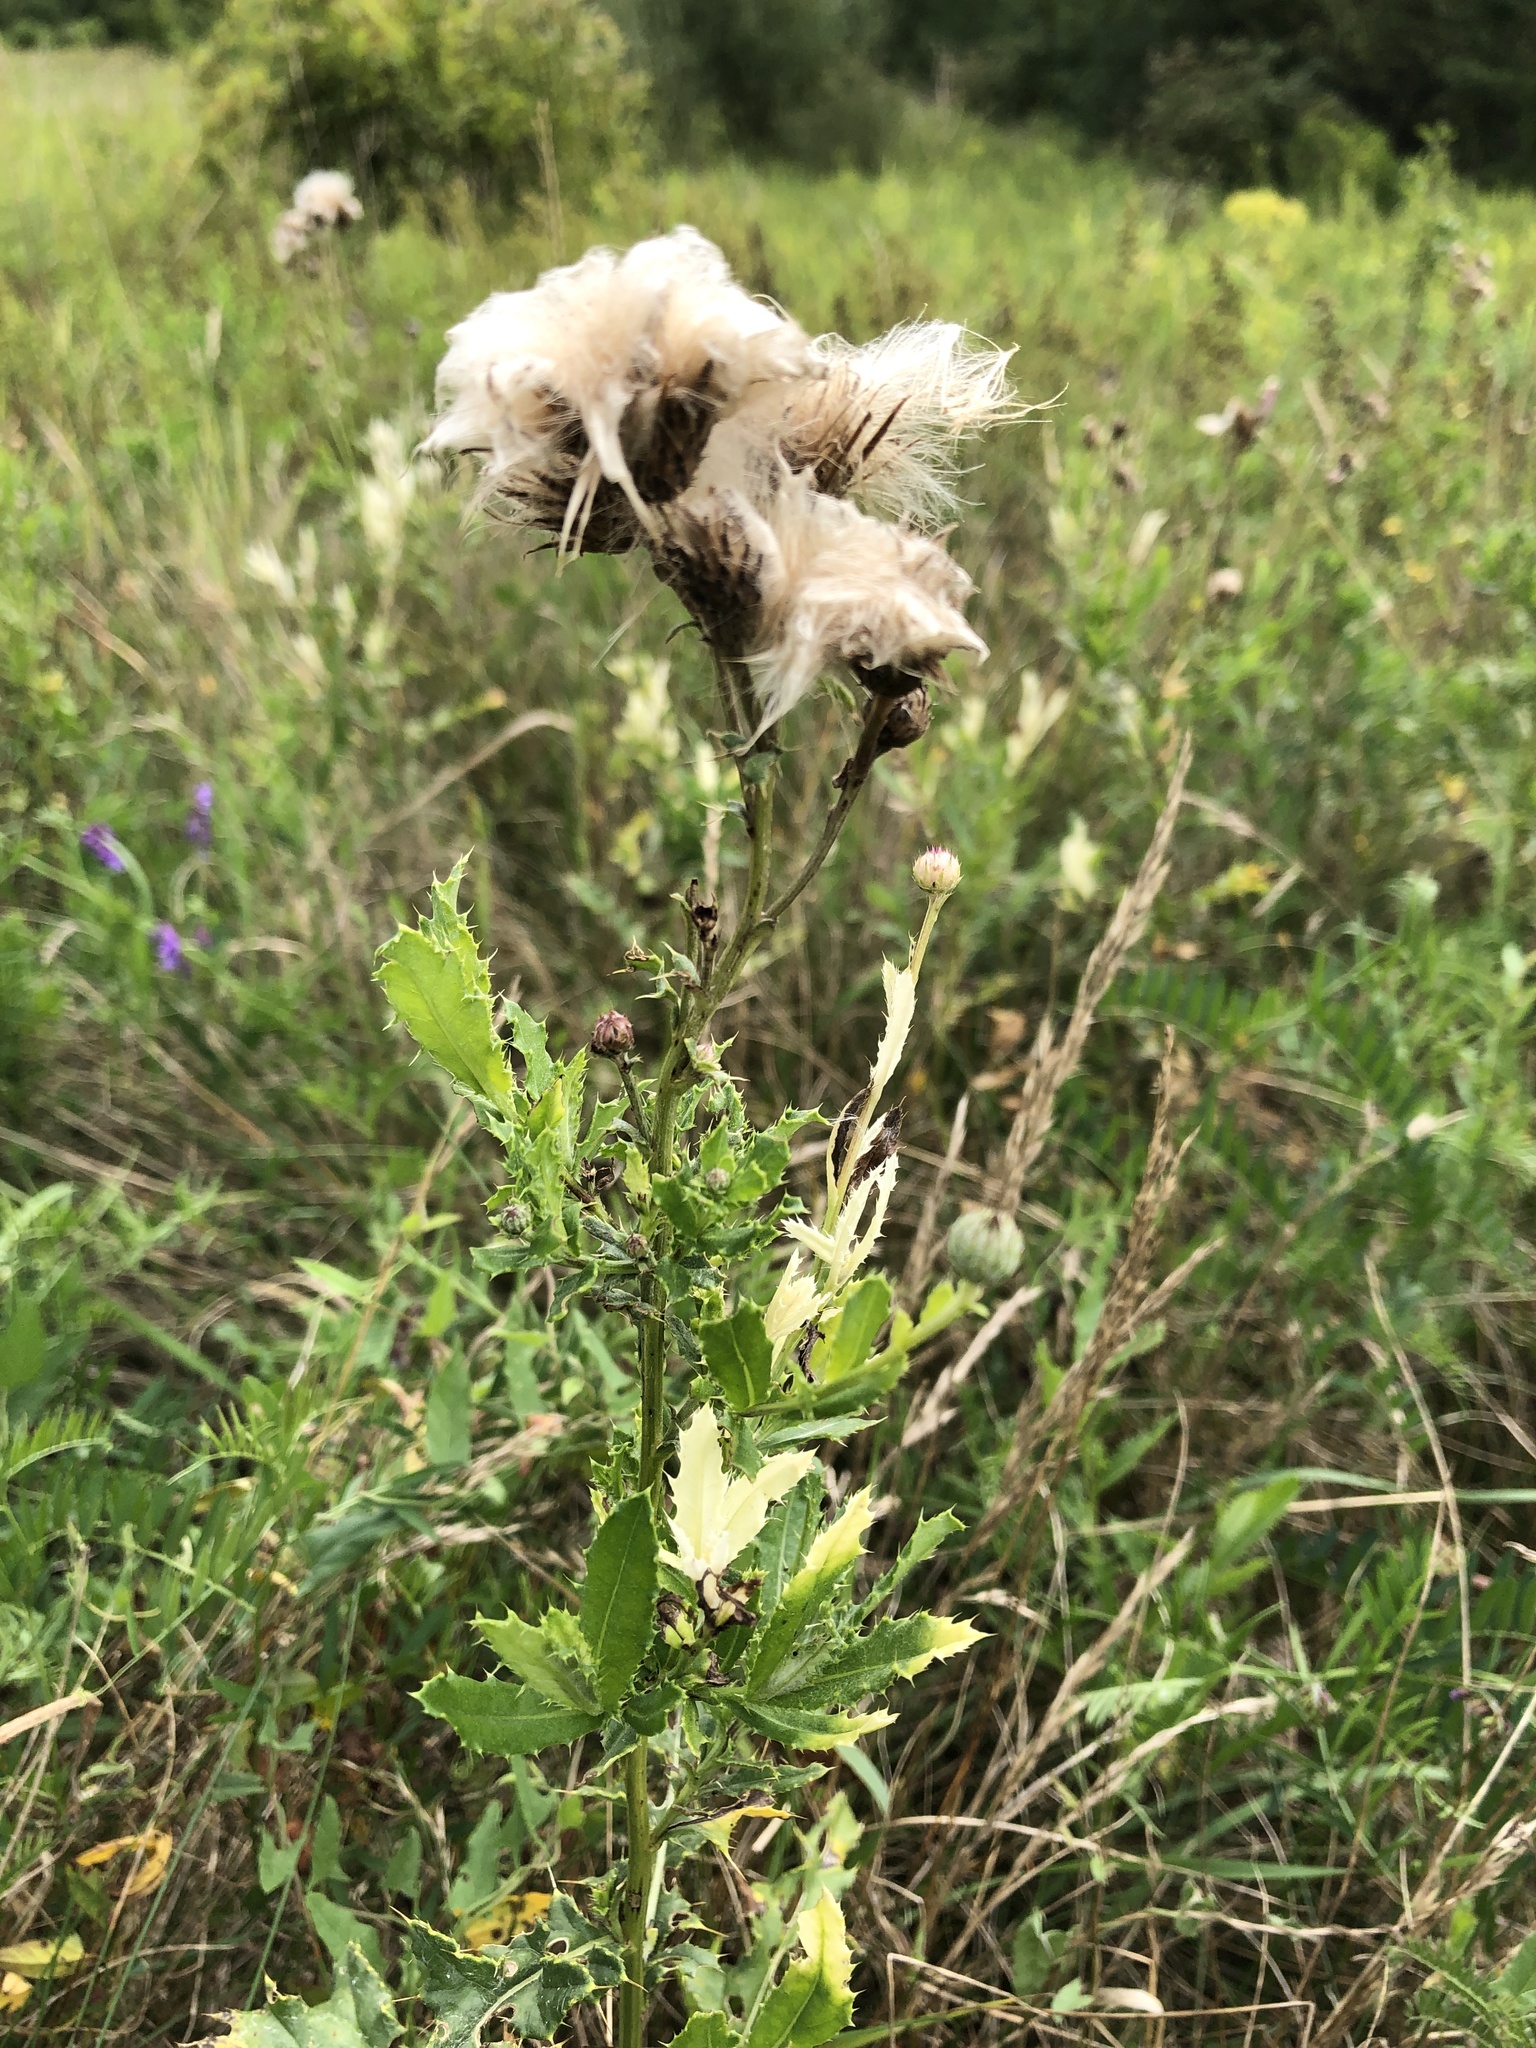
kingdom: Plantae
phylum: Tracheophyta
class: Magnoliopsida
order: Asterales
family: Asteraceae
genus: Cirsium
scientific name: Cirsium arvense
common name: Creeping thistle
